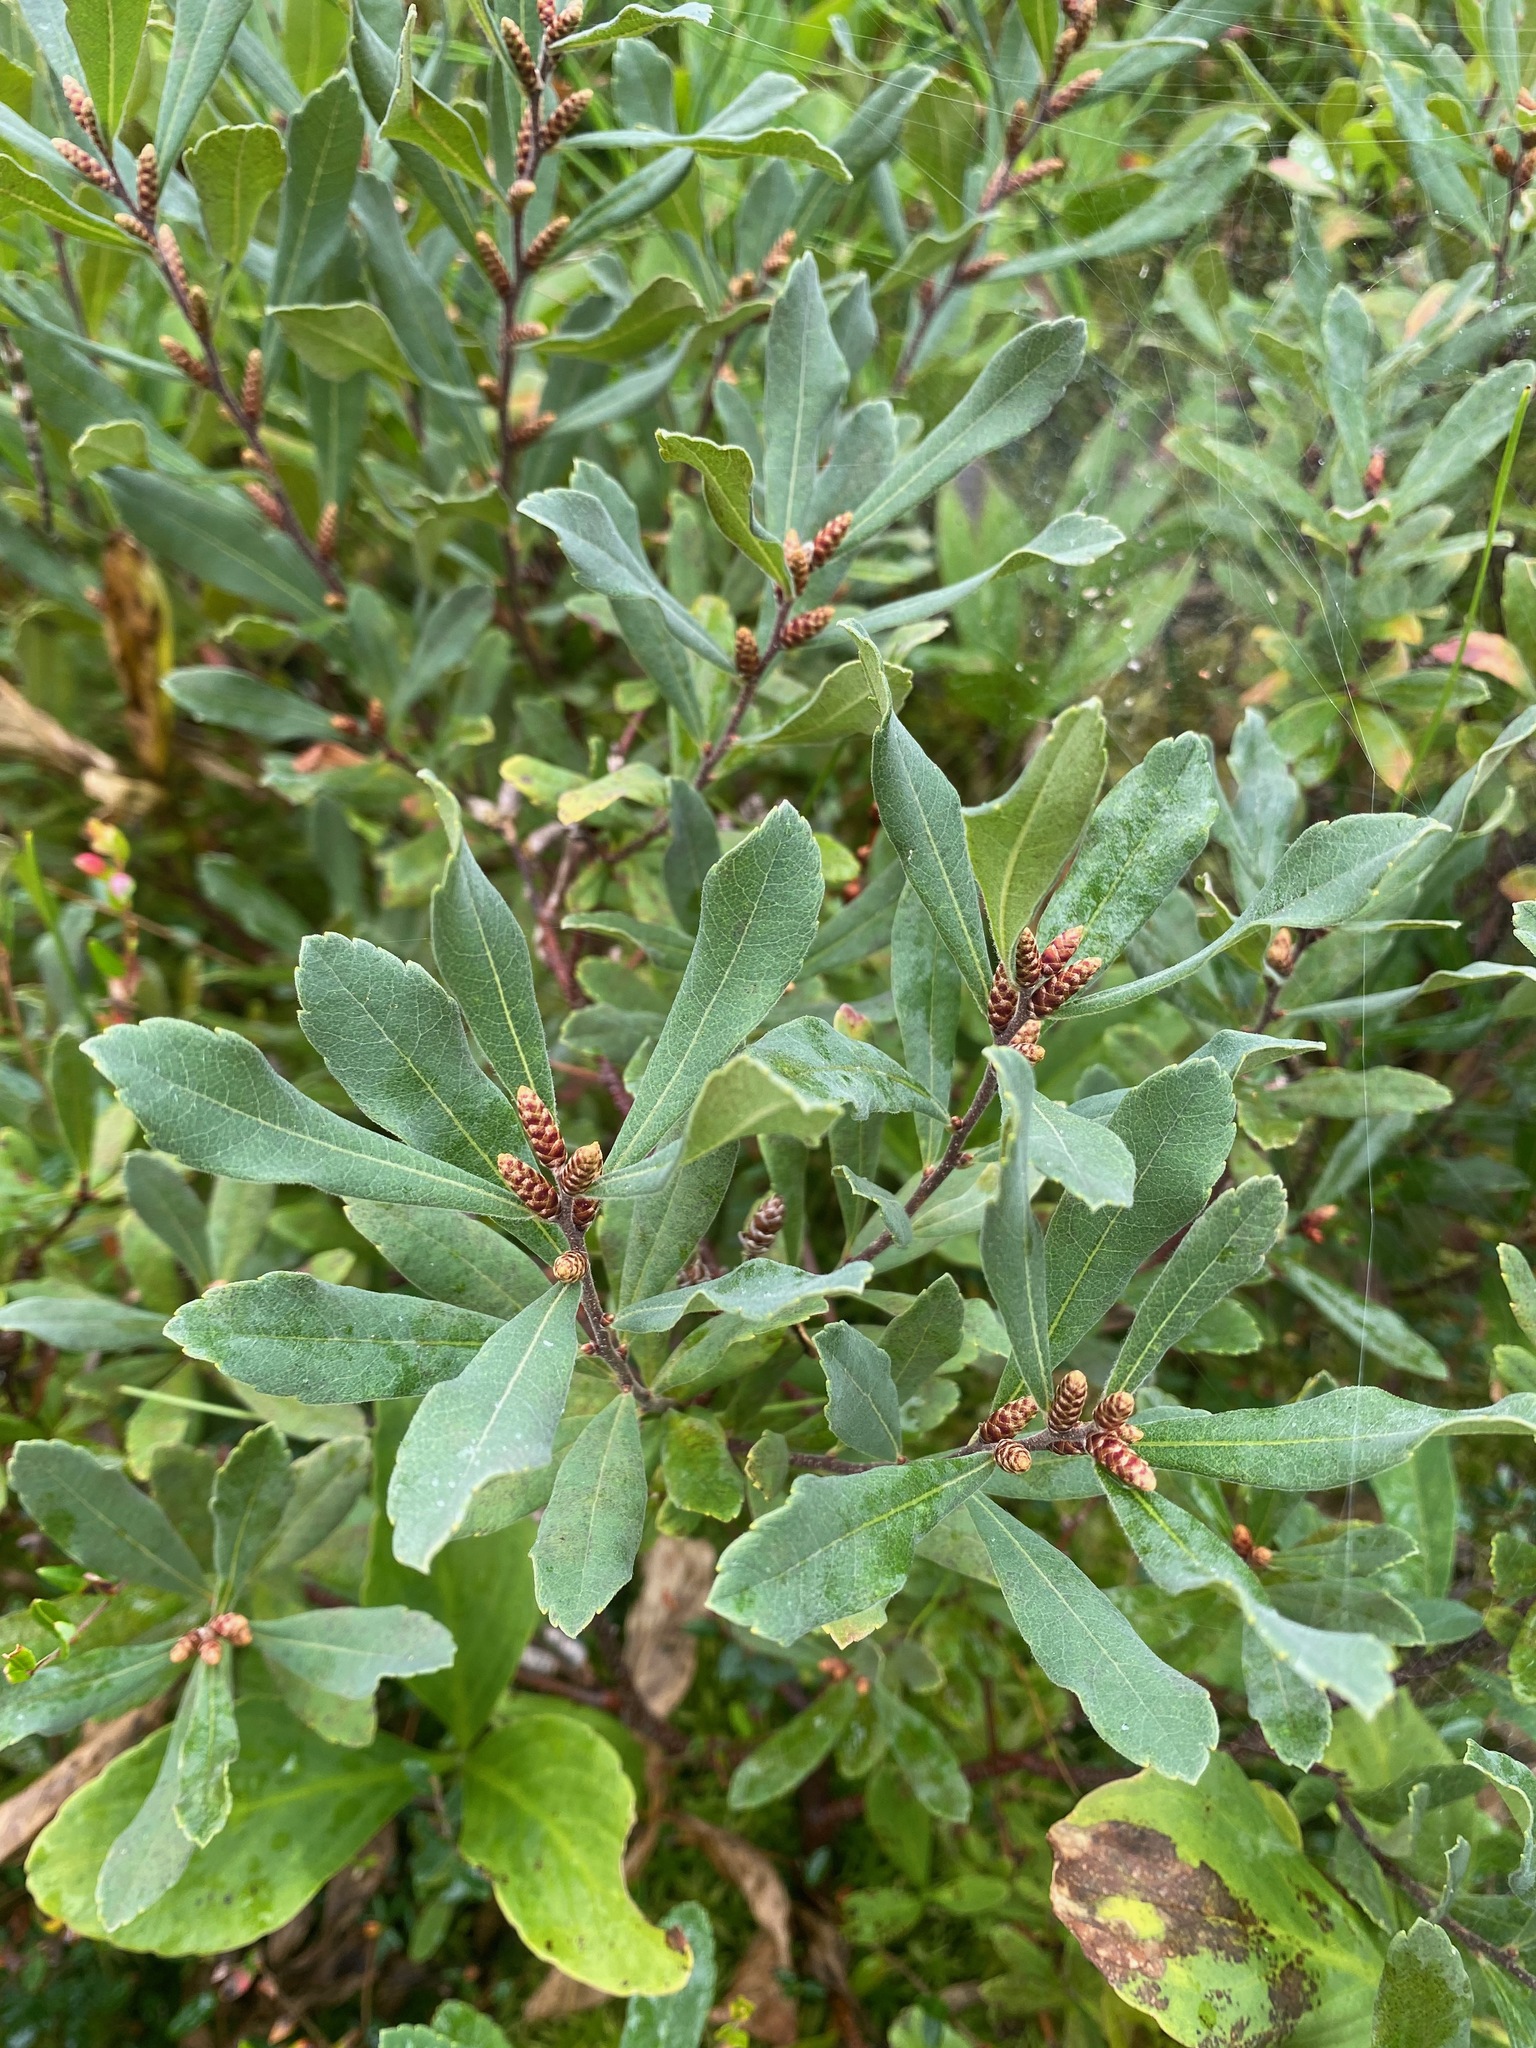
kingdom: Plantae
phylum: Tracheophyta
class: Magnoliopsida
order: Fagales
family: Myricaceae
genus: Myrica
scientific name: Myrica gale
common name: Sweet gale
